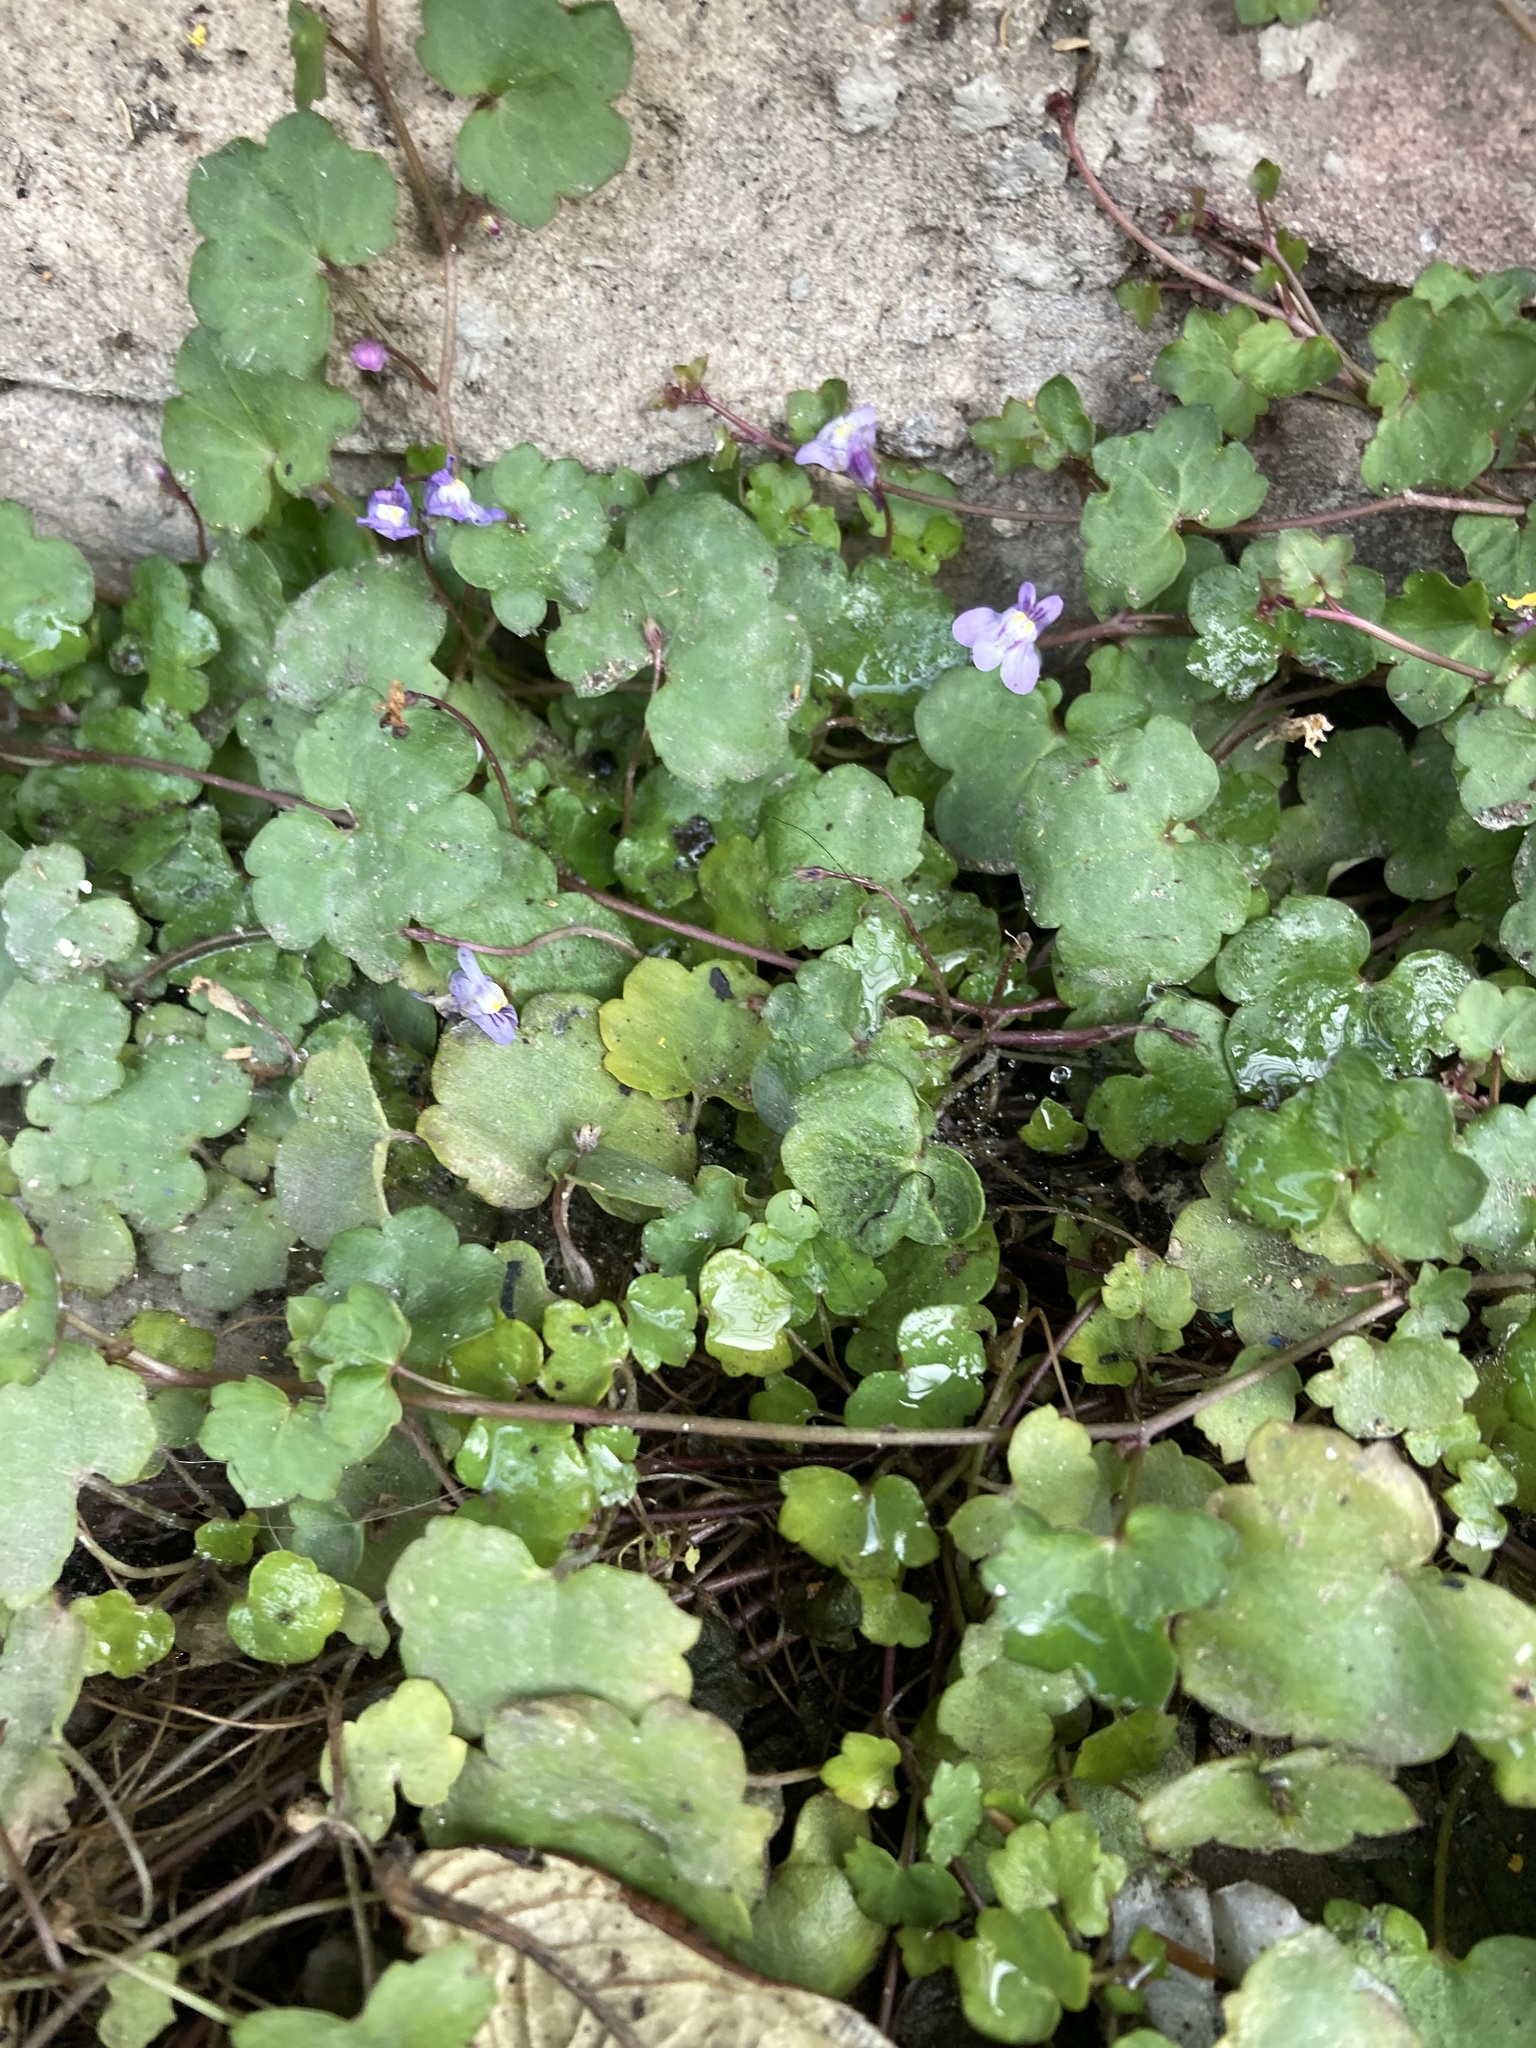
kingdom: Plantae
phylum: Tracheophyta
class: Magnoliopsida
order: Lamiales
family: Plantaginaceae
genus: Cymbalaria
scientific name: Cymbalaria muralis
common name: Ivy-leaved toadflax
